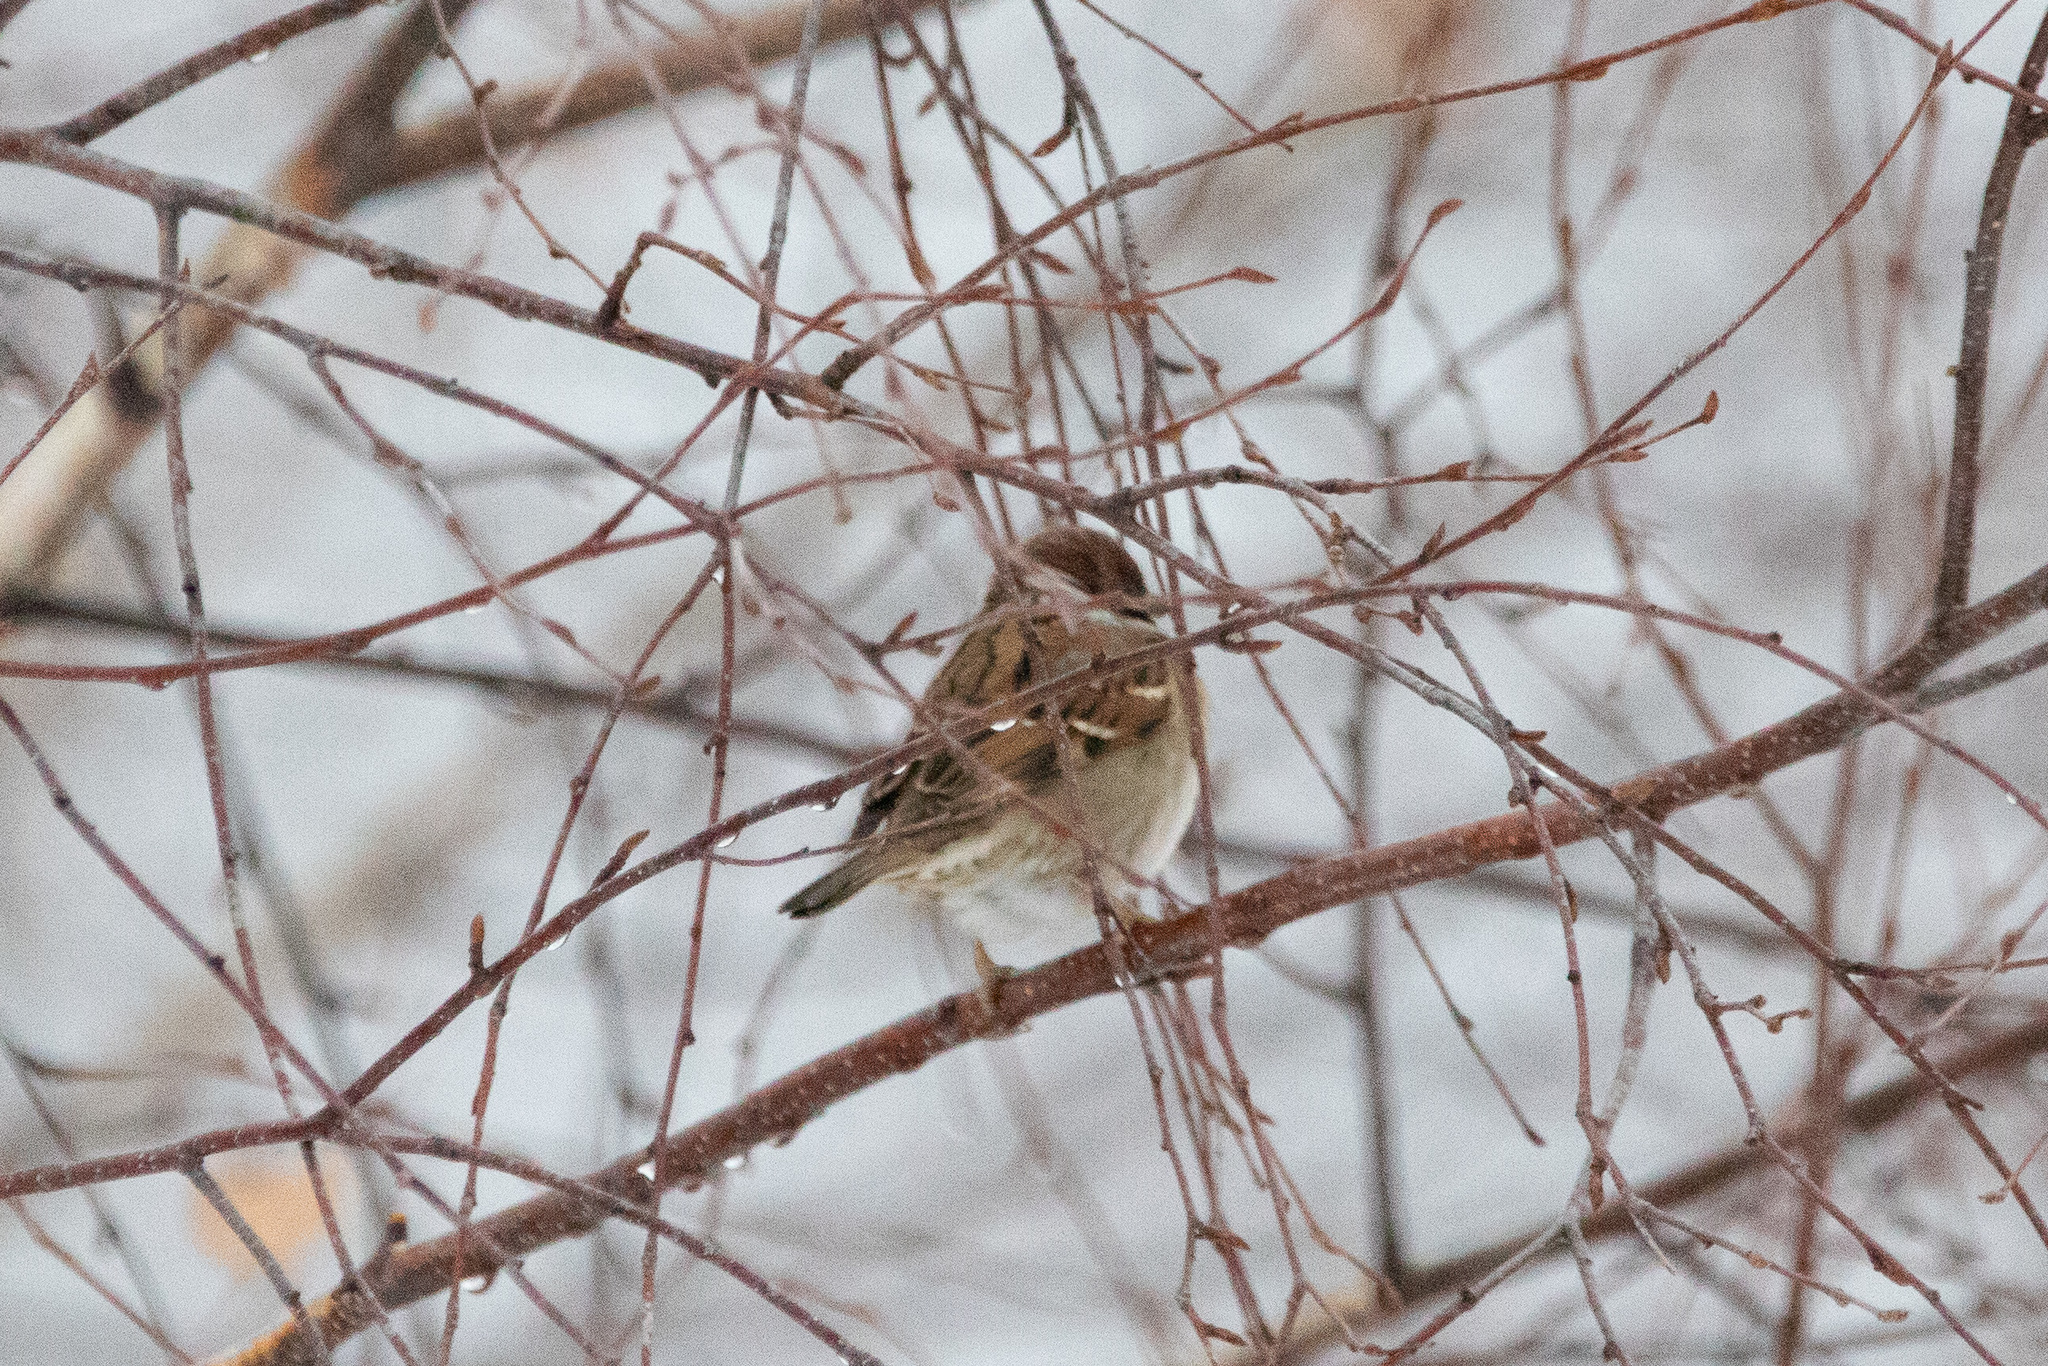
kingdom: Animalia
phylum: Chordata
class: Aves
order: Passeriformes
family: Passeridae
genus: Passer
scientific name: Passer montanus
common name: Eurasian tree sparrow
